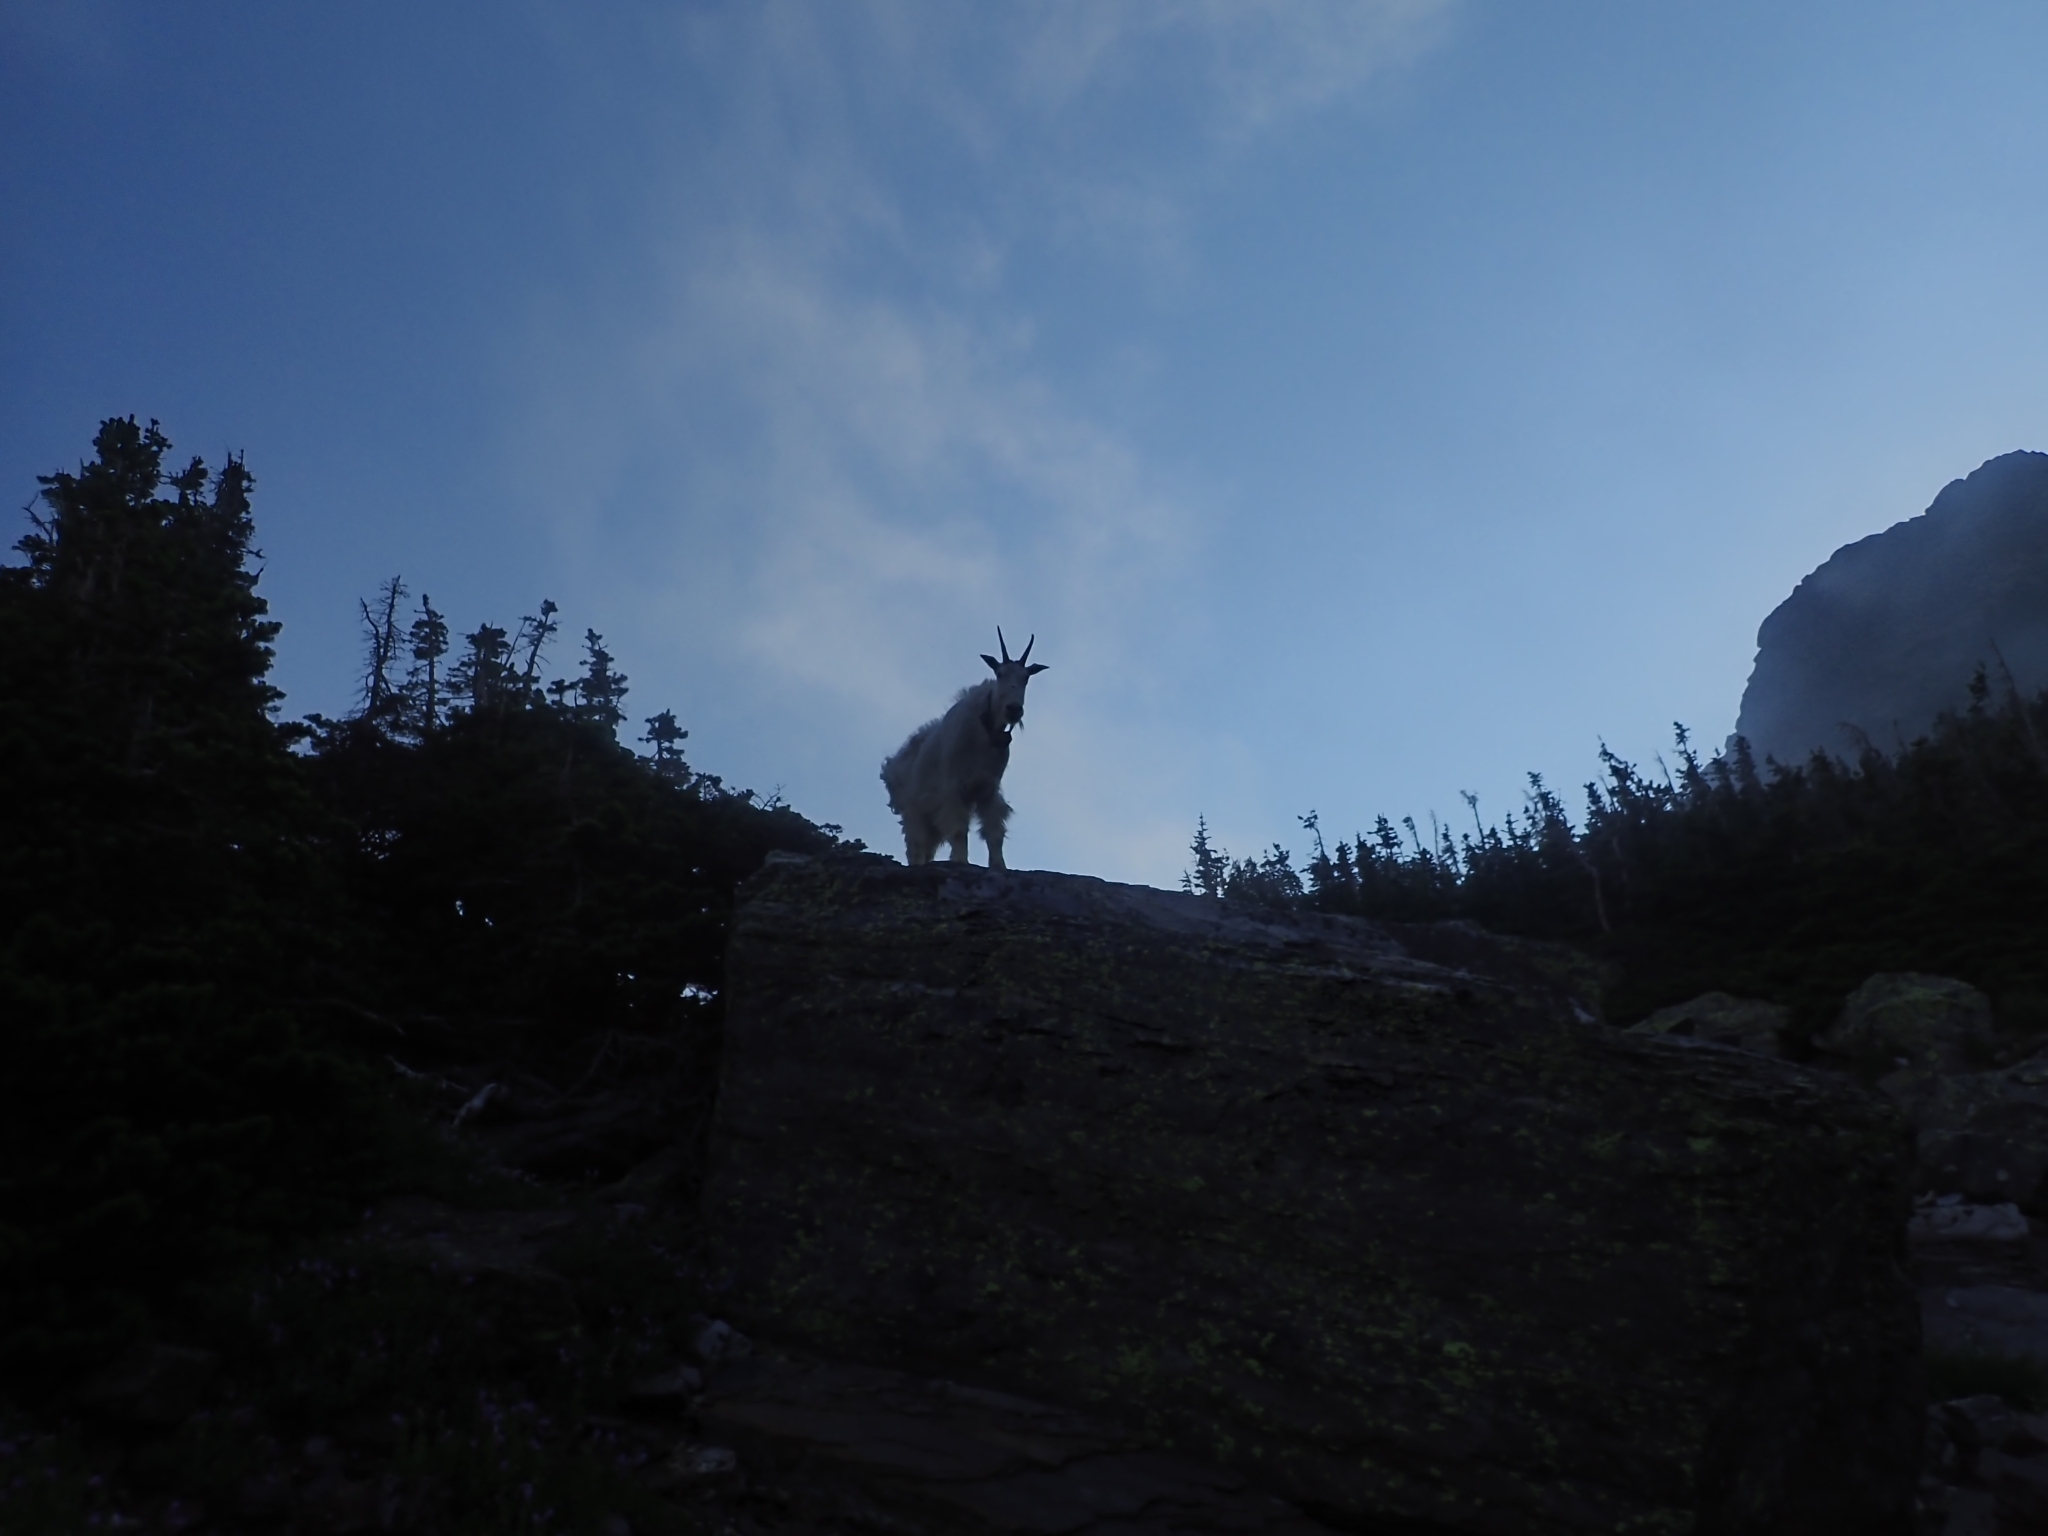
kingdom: Animalia
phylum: Chordata
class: Mammalia
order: Artiodactyla
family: Bovidae
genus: Oreamnos
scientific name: Oreamnos americanus
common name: Mountain goat
